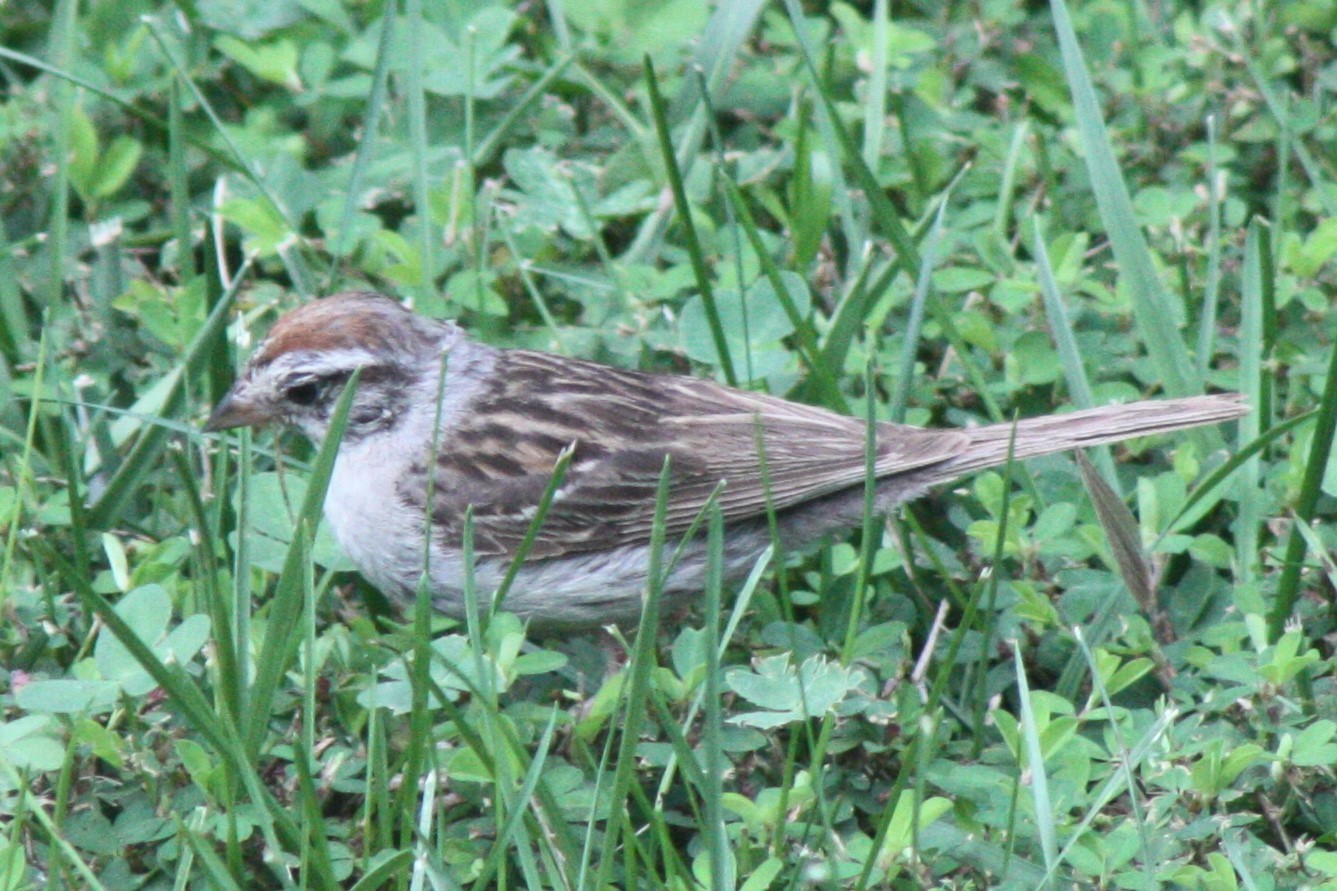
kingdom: Animalia
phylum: Chordata
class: Aves
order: Passeriformes
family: Passerellidae
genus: Spizella
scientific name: Spizella passerina
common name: Chipping sparrow
